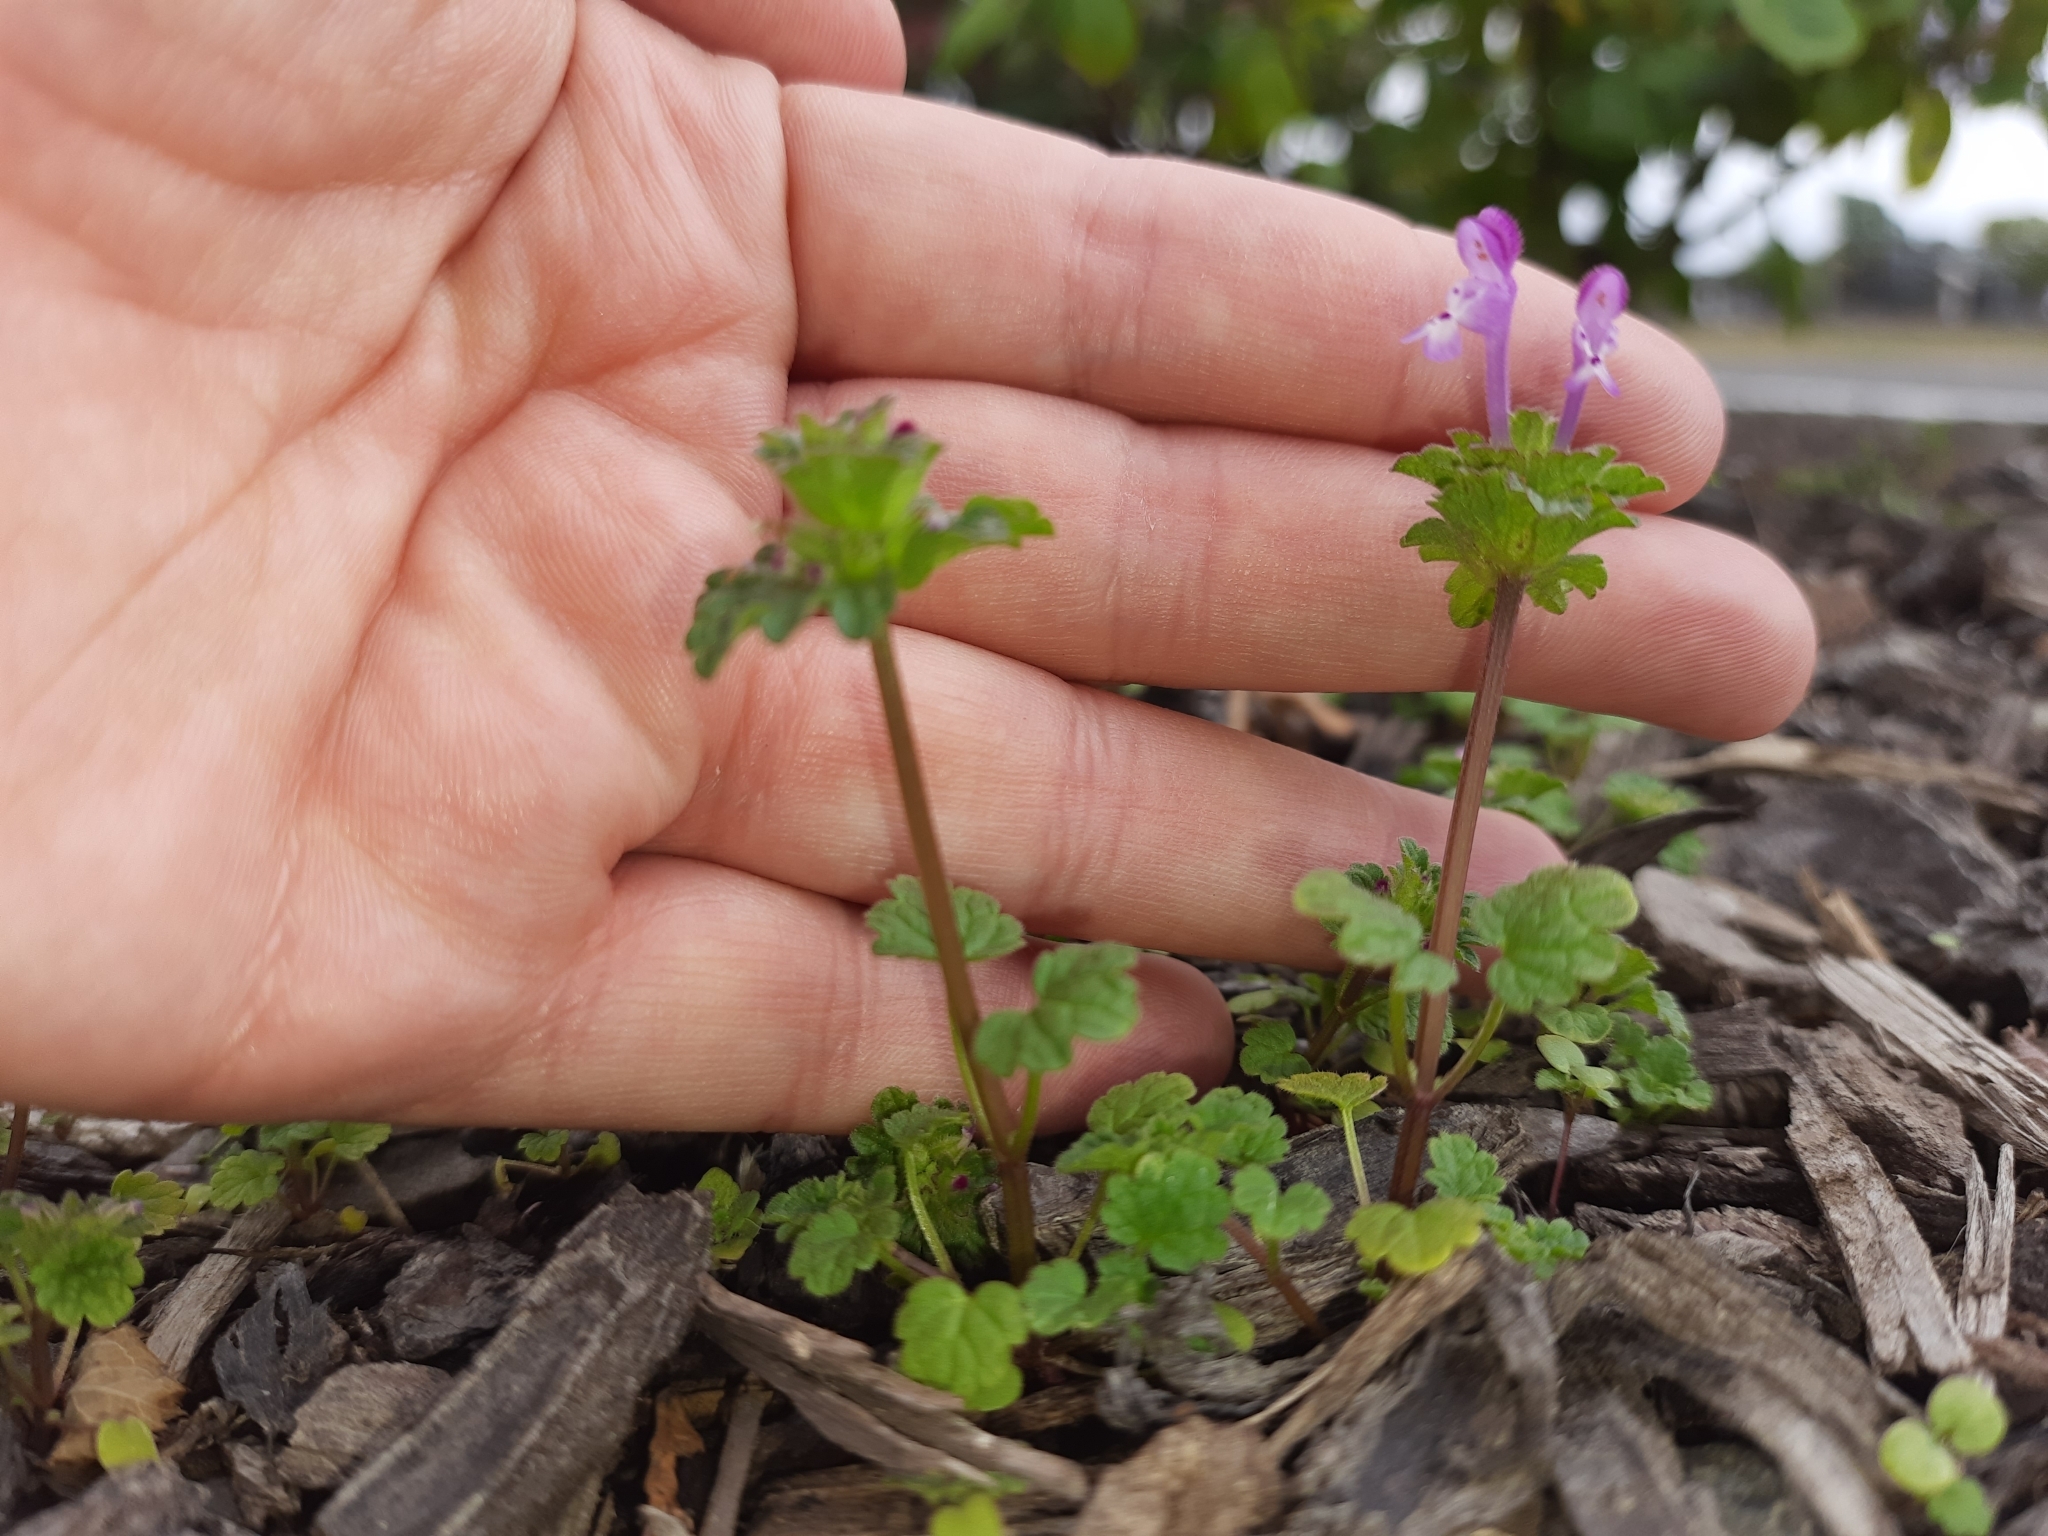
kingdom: Plantae
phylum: Tracheophyta
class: Magnoliopsida
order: Lamiales
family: Lamiaceae
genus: Lamium
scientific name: Lamium amplexicaule
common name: Henbit dead-nettle
